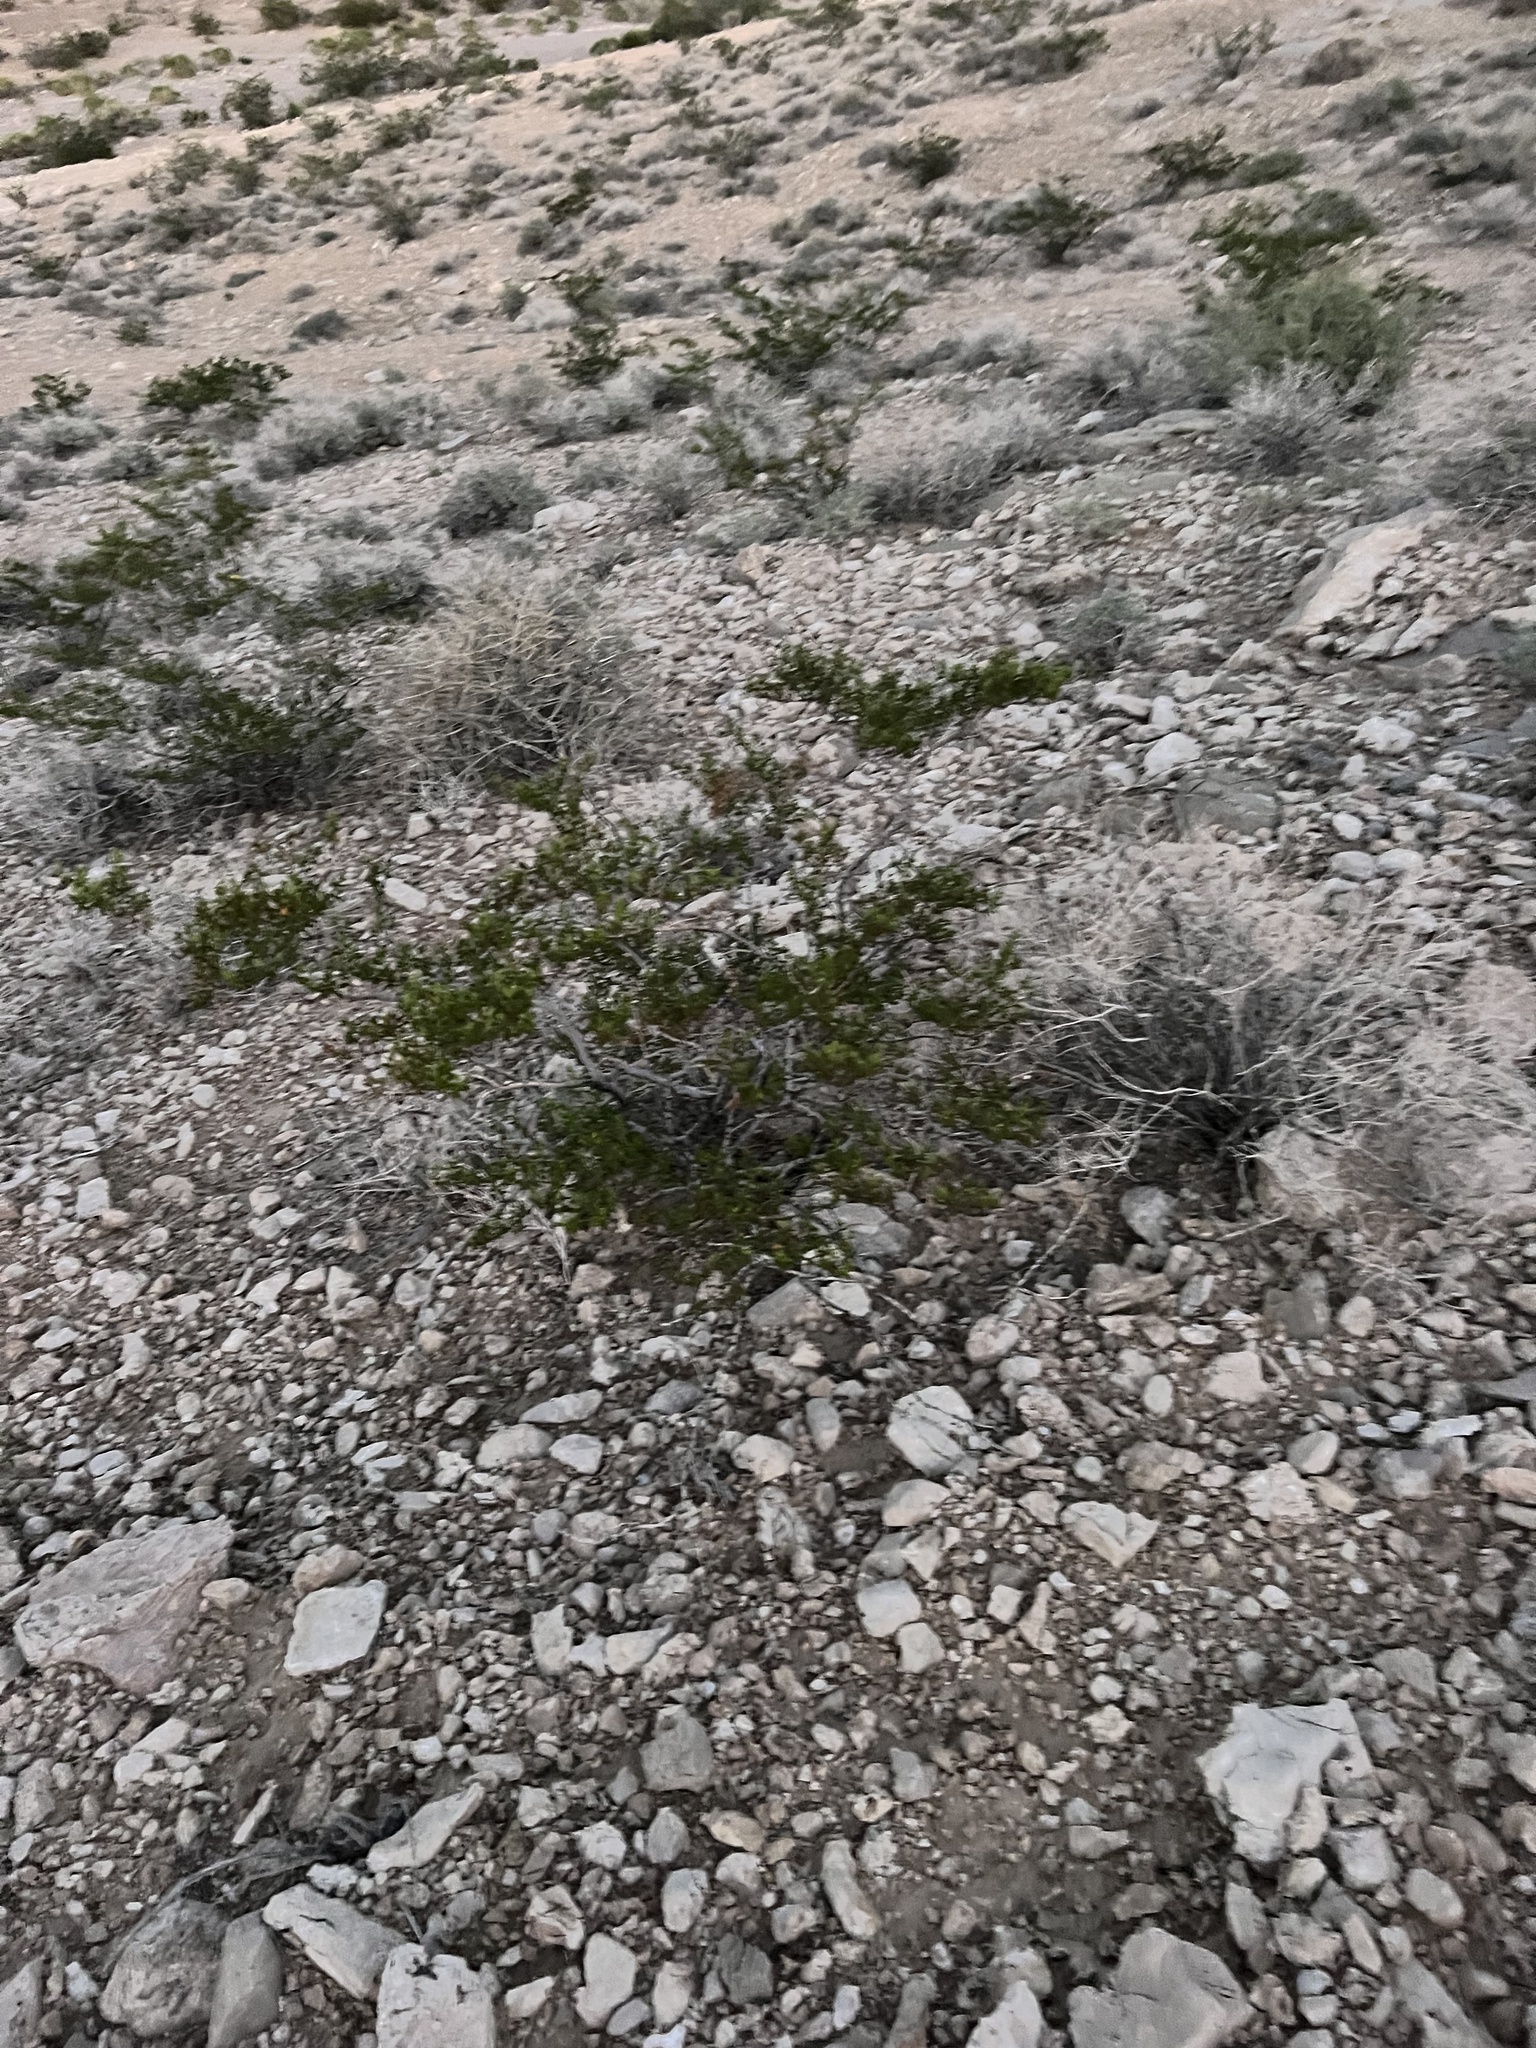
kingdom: Plantae
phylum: Tracheophyta
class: Magnoliopsida
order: Zygophyllales
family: Zygophyllaceae
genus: Larrea
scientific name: Larrea tridentata
